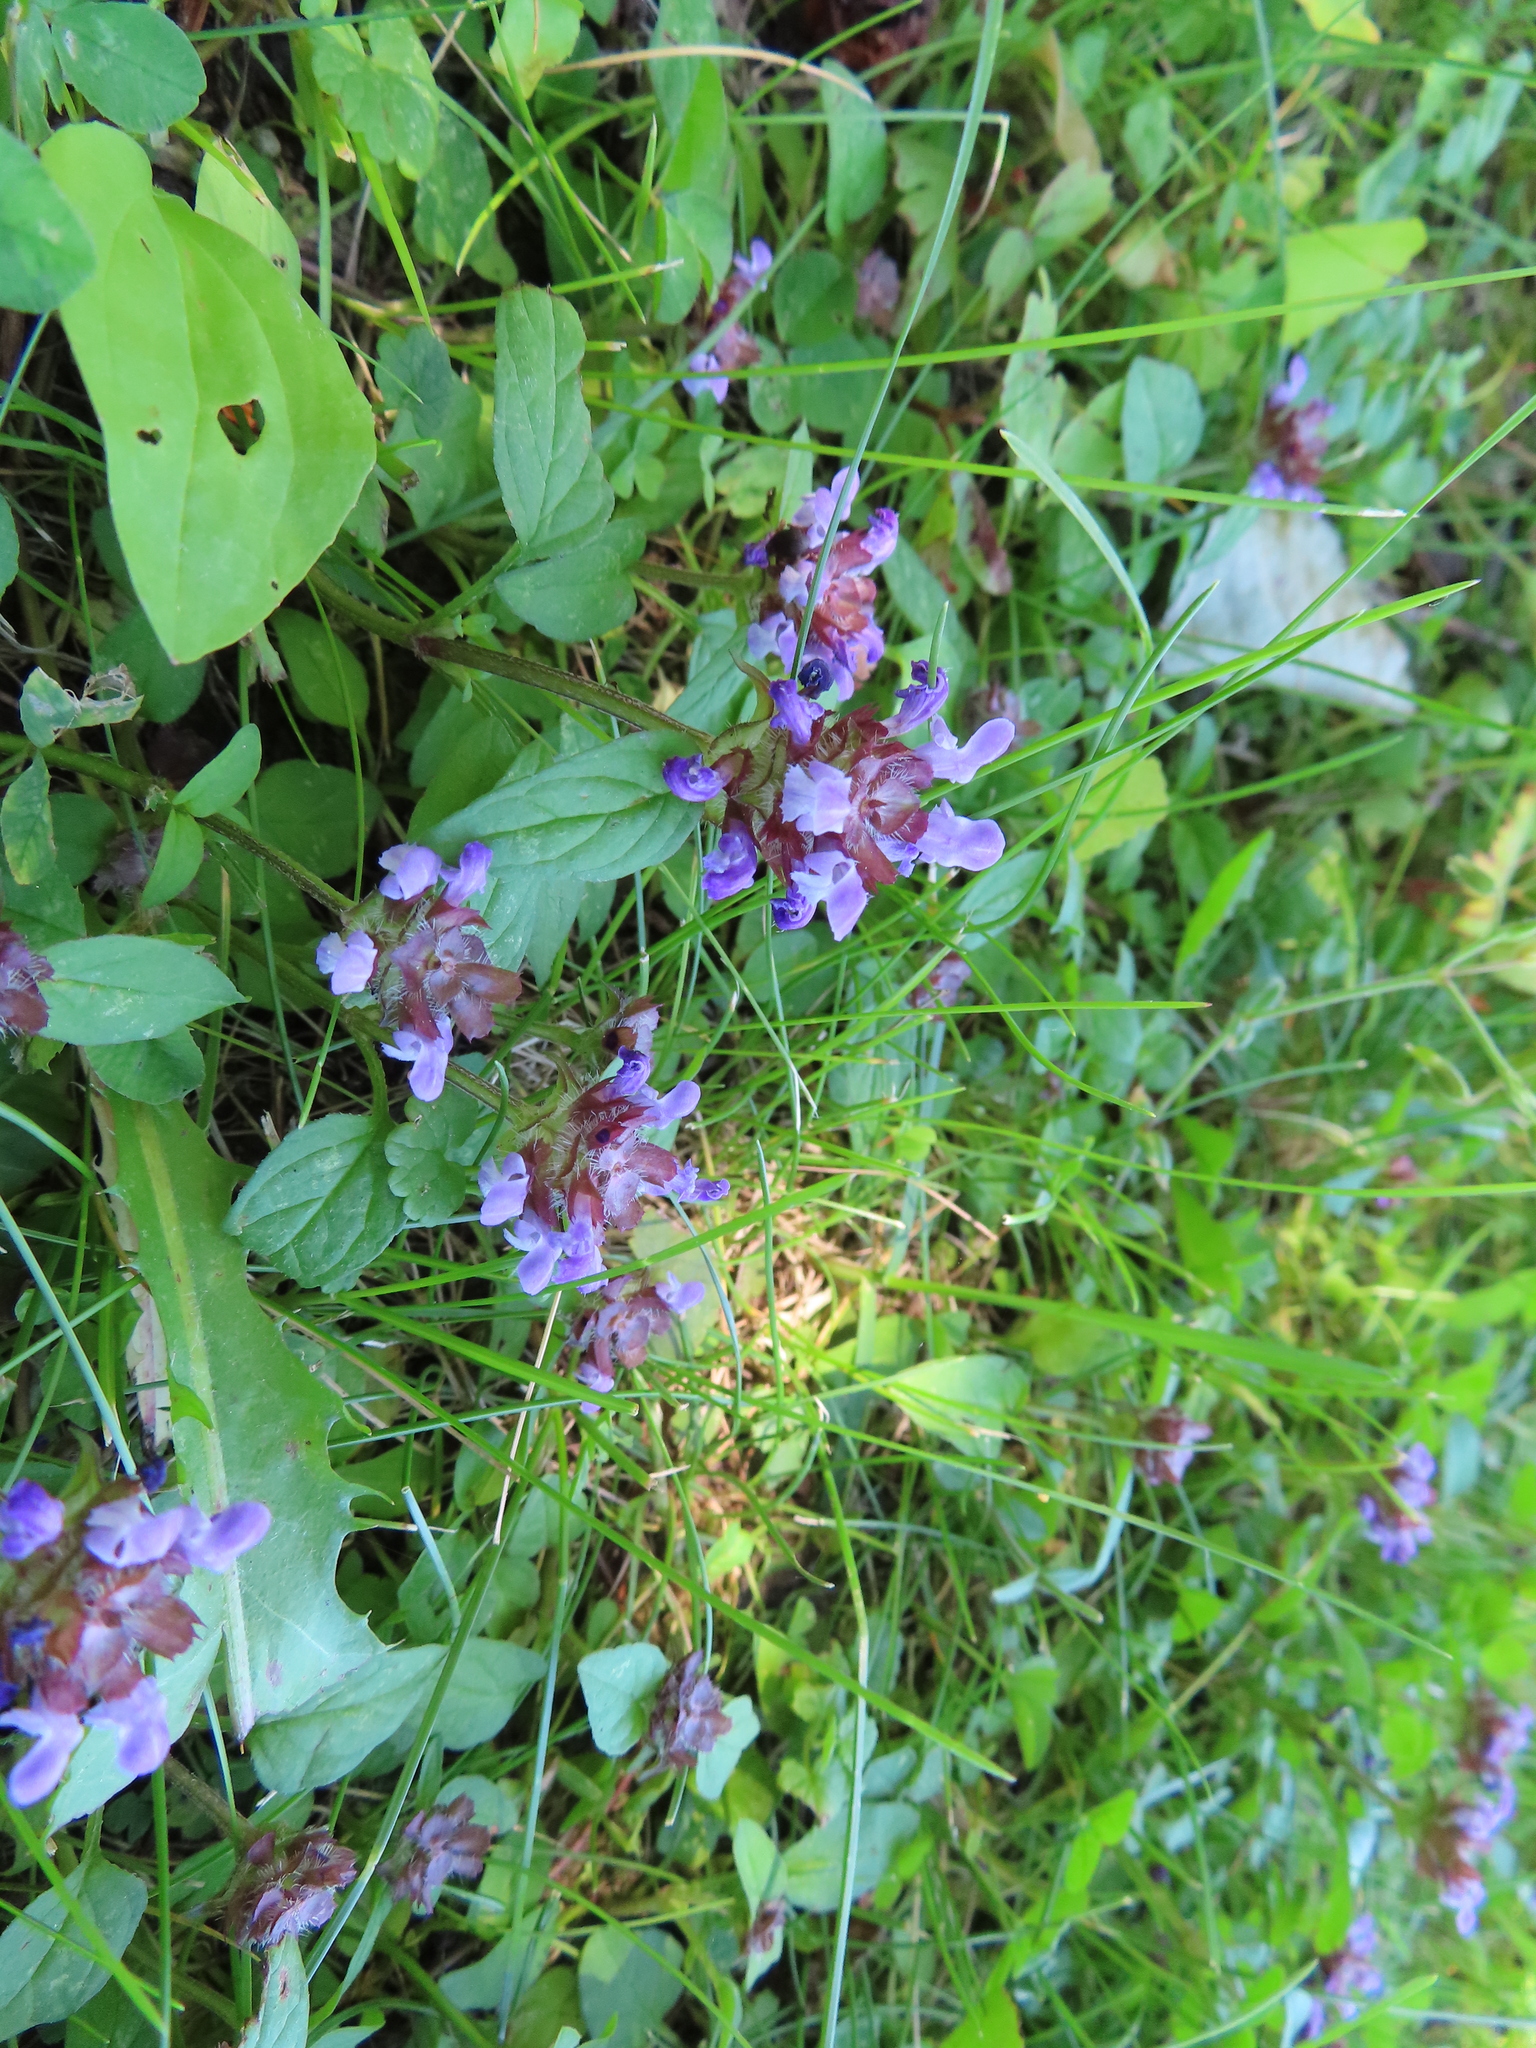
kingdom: Plantae
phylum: Tracheophyta
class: Magnoliopsida
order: Lamiales
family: Lamiaceae
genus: Prunella
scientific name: Prunella vulgaris
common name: Heal-all
